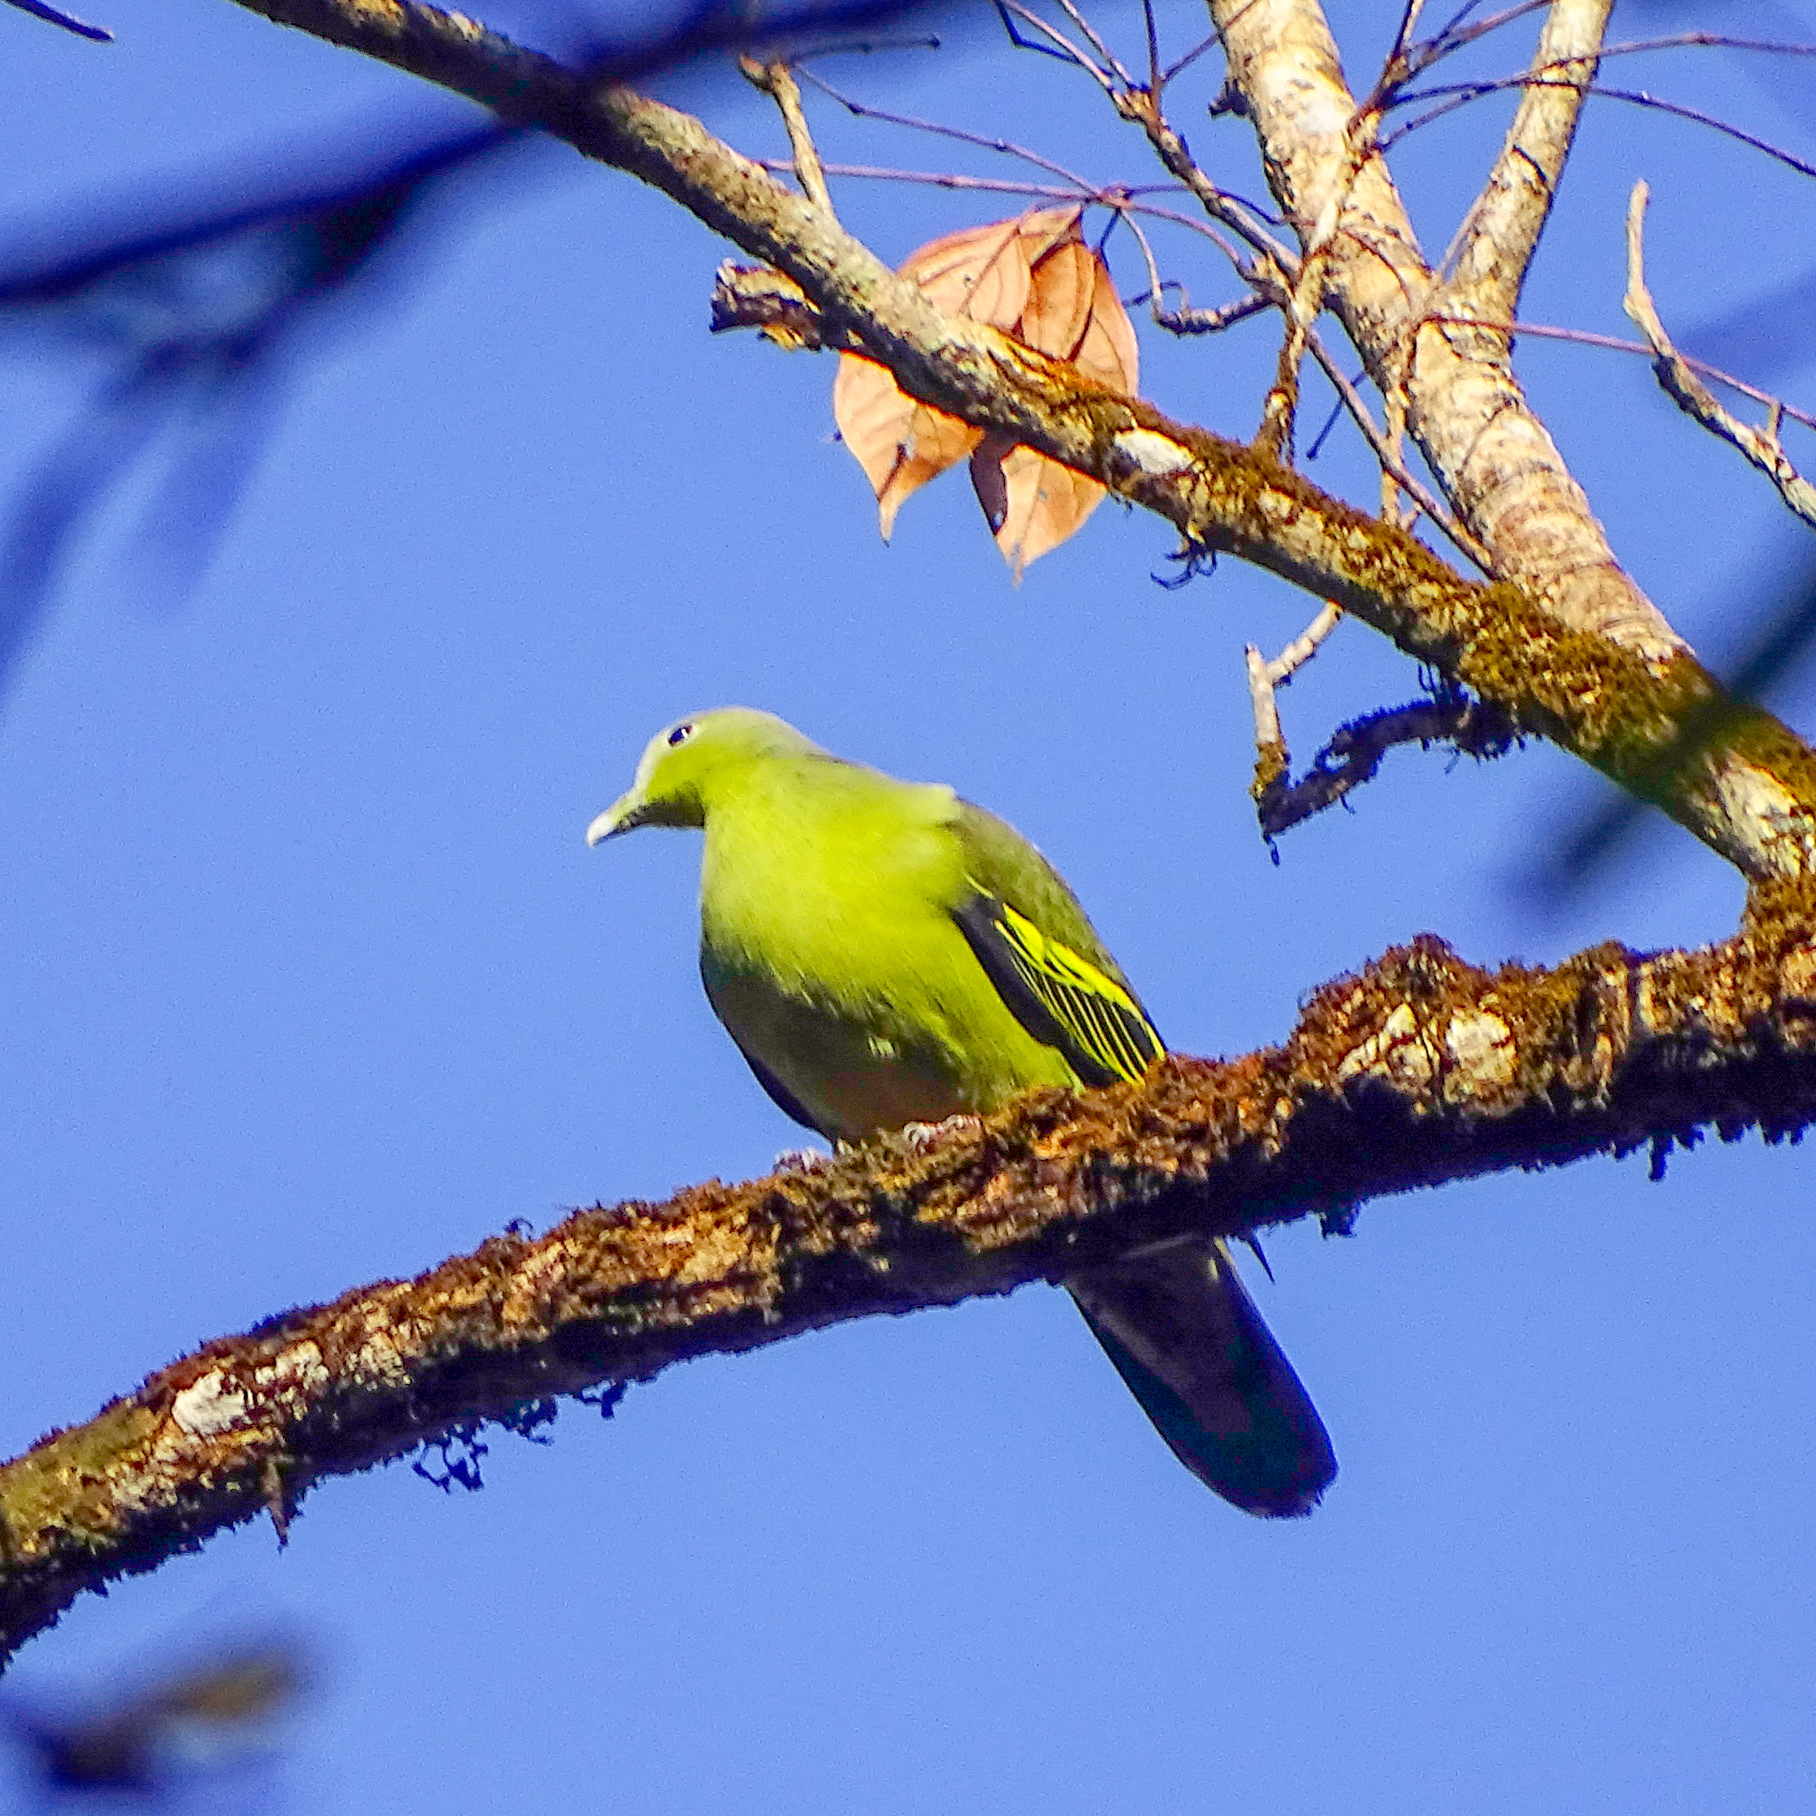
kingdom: Animalia
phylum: Chordata
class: Aves
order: Columbiformes
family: Columbidae
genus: Treron
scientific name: Treron affinis
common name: Grey-fronted green pigeon
